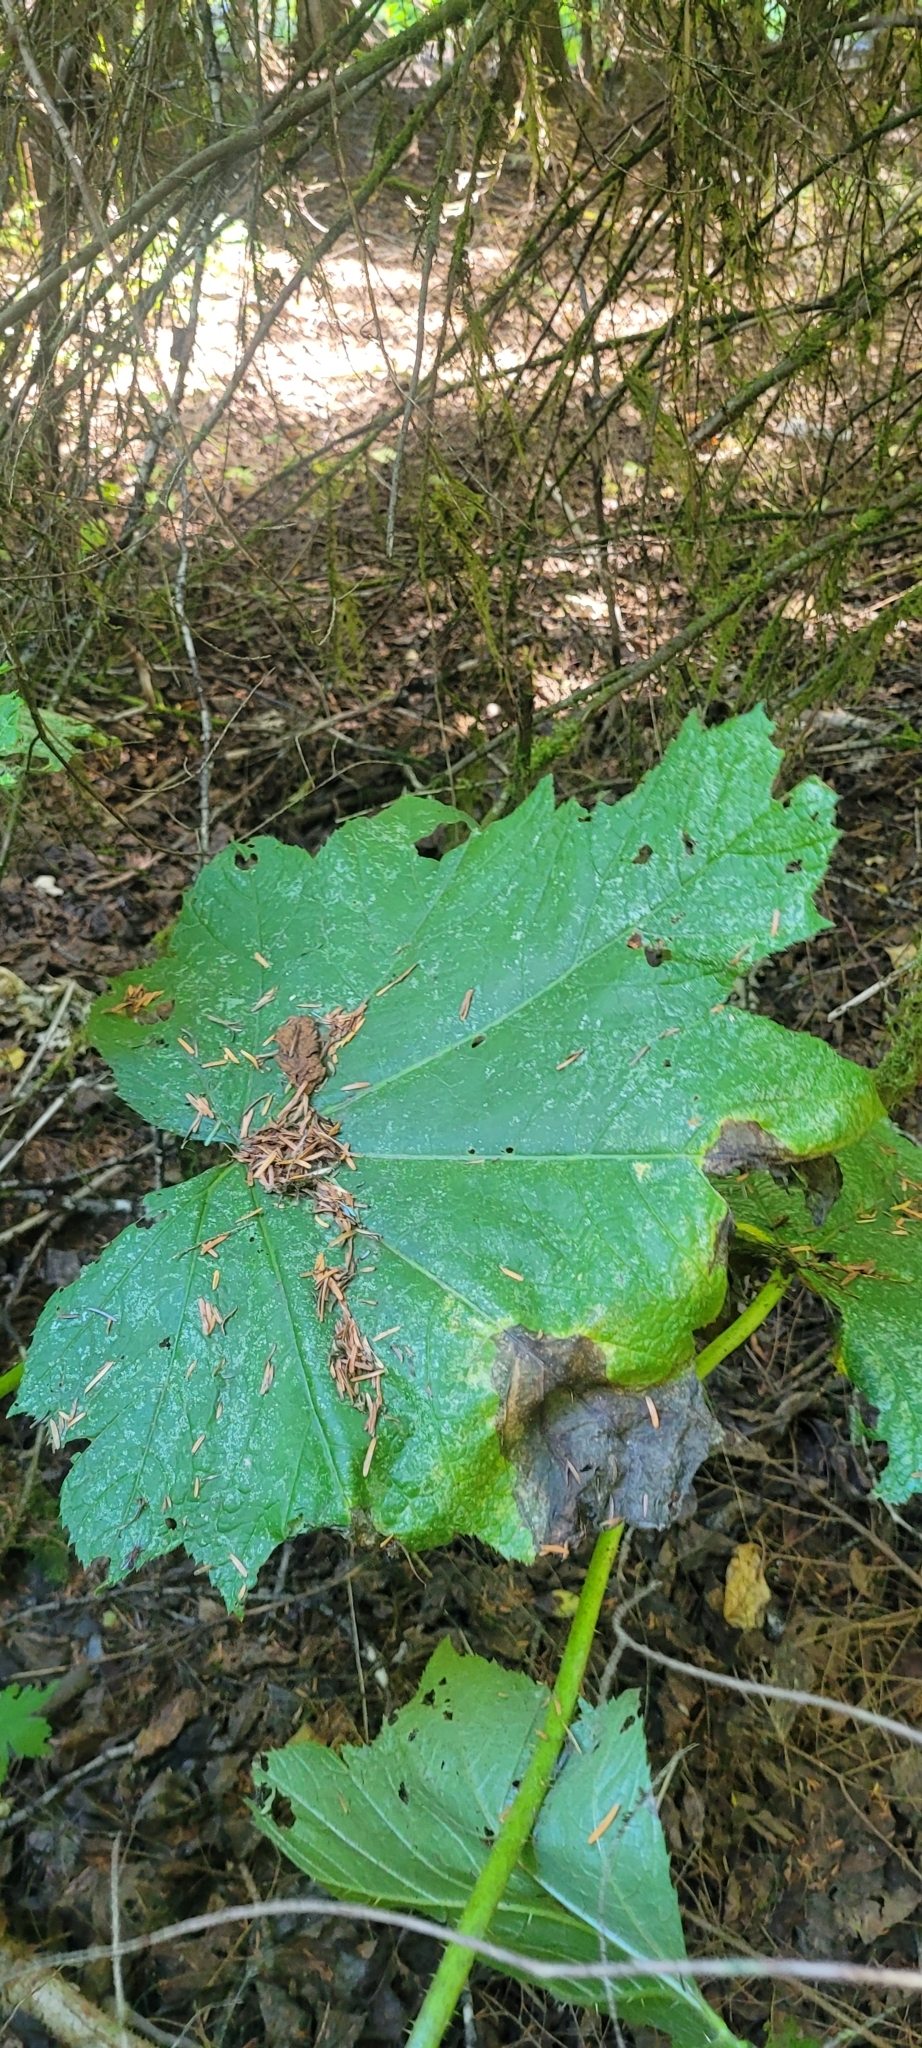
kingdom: Plantae
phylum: Tracheophyta
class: Magnoliopsida
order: Apiales
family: Araliaceae
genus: Oplopanax
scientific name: Oplopanax horridus
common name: Devil's walking-stick
